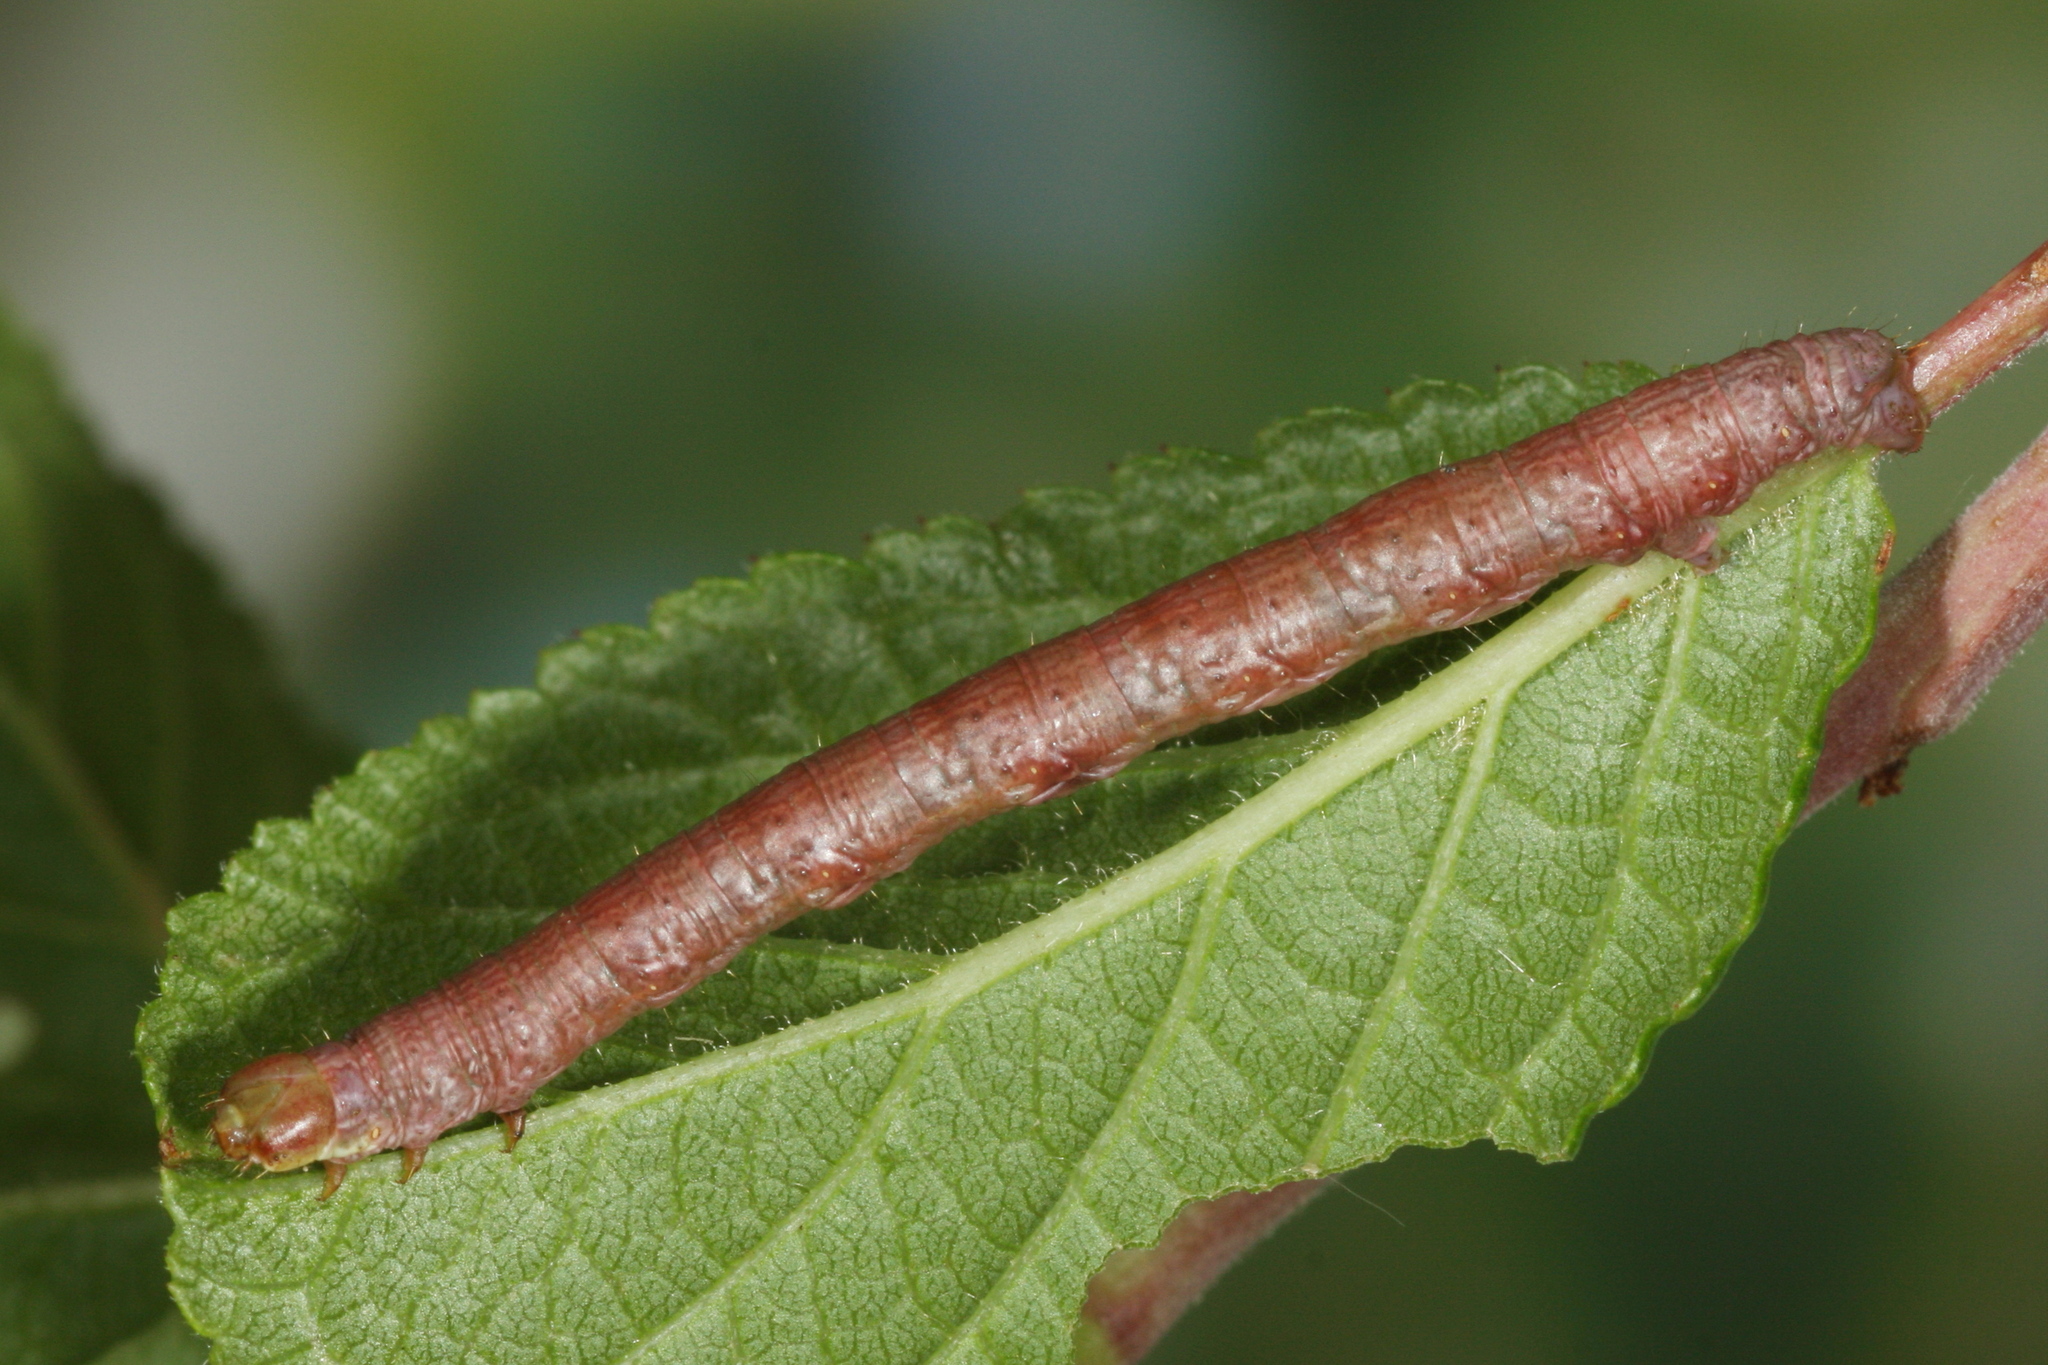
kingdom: Animalia
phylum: Arthropoda
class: Insecta
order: Lepidoptera
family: Geometridae
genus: Macaria
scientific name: Macaria alternata
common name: Sharp-angled peacock
